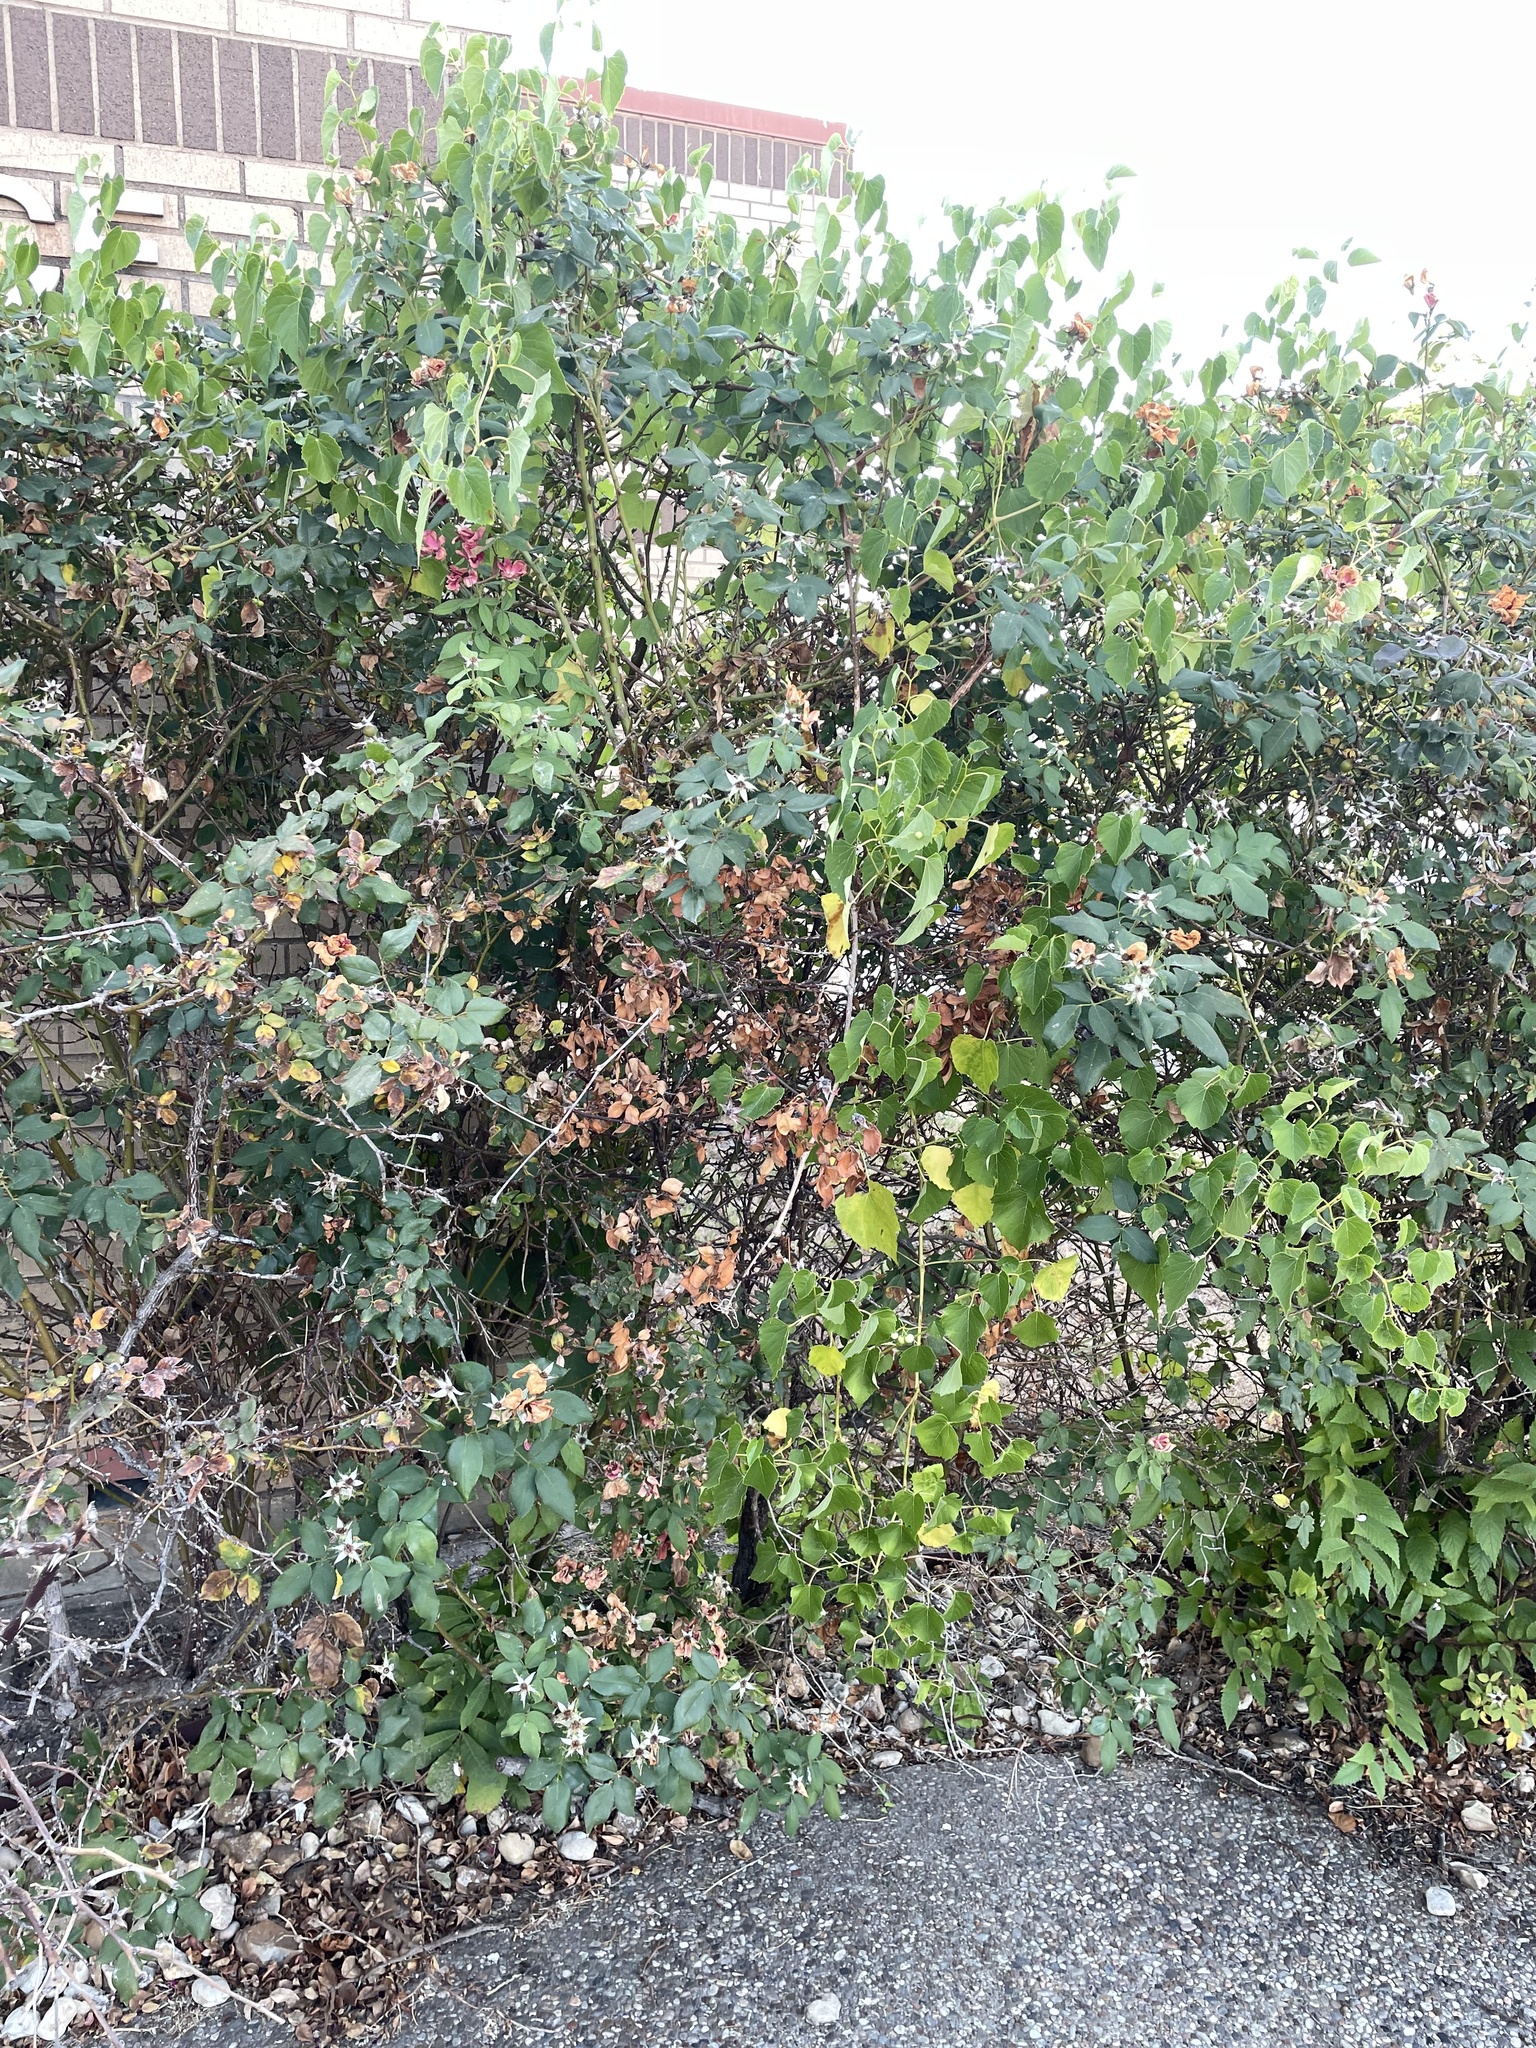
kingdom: Plantae
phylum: Tracheophyta
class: Magnoliopsida
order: Vitales
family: Vitaceae
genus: Ampelopsis
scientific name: Ampelopsis cordata
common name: Heart-leaf ampelopsis
